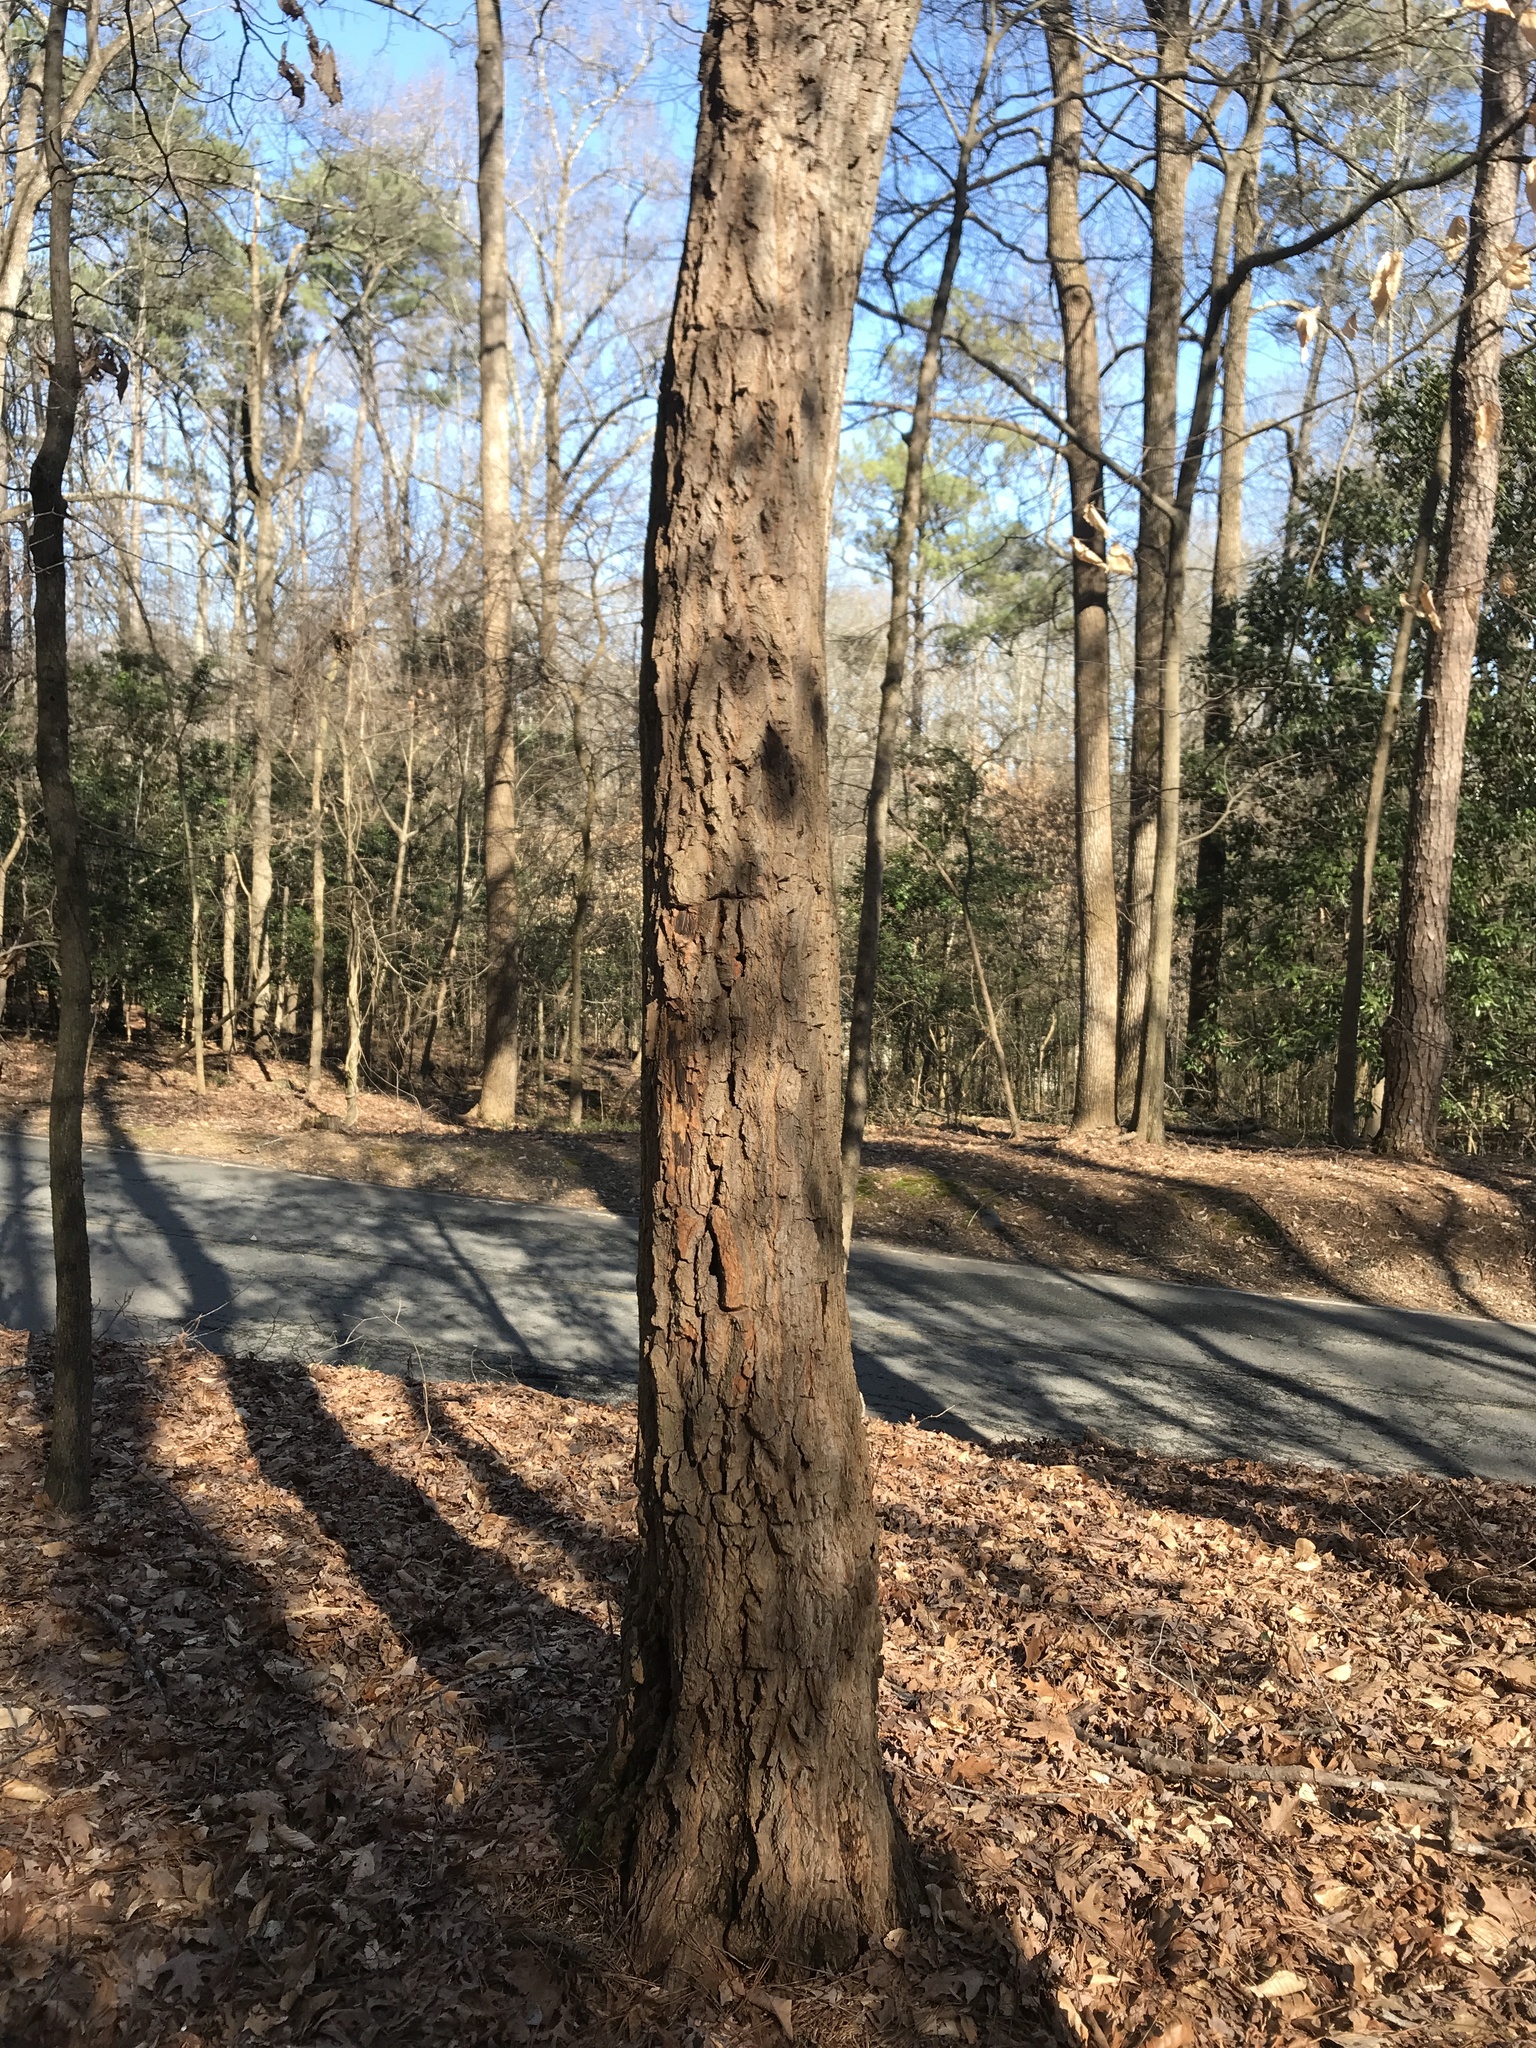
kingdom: Plantae
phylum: Tracheophyta
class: Magnoliopsida
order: Ericales
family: Ericaceae
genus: Oxydendrum
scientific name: Oxydendrum arboreum
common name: Sourwood
